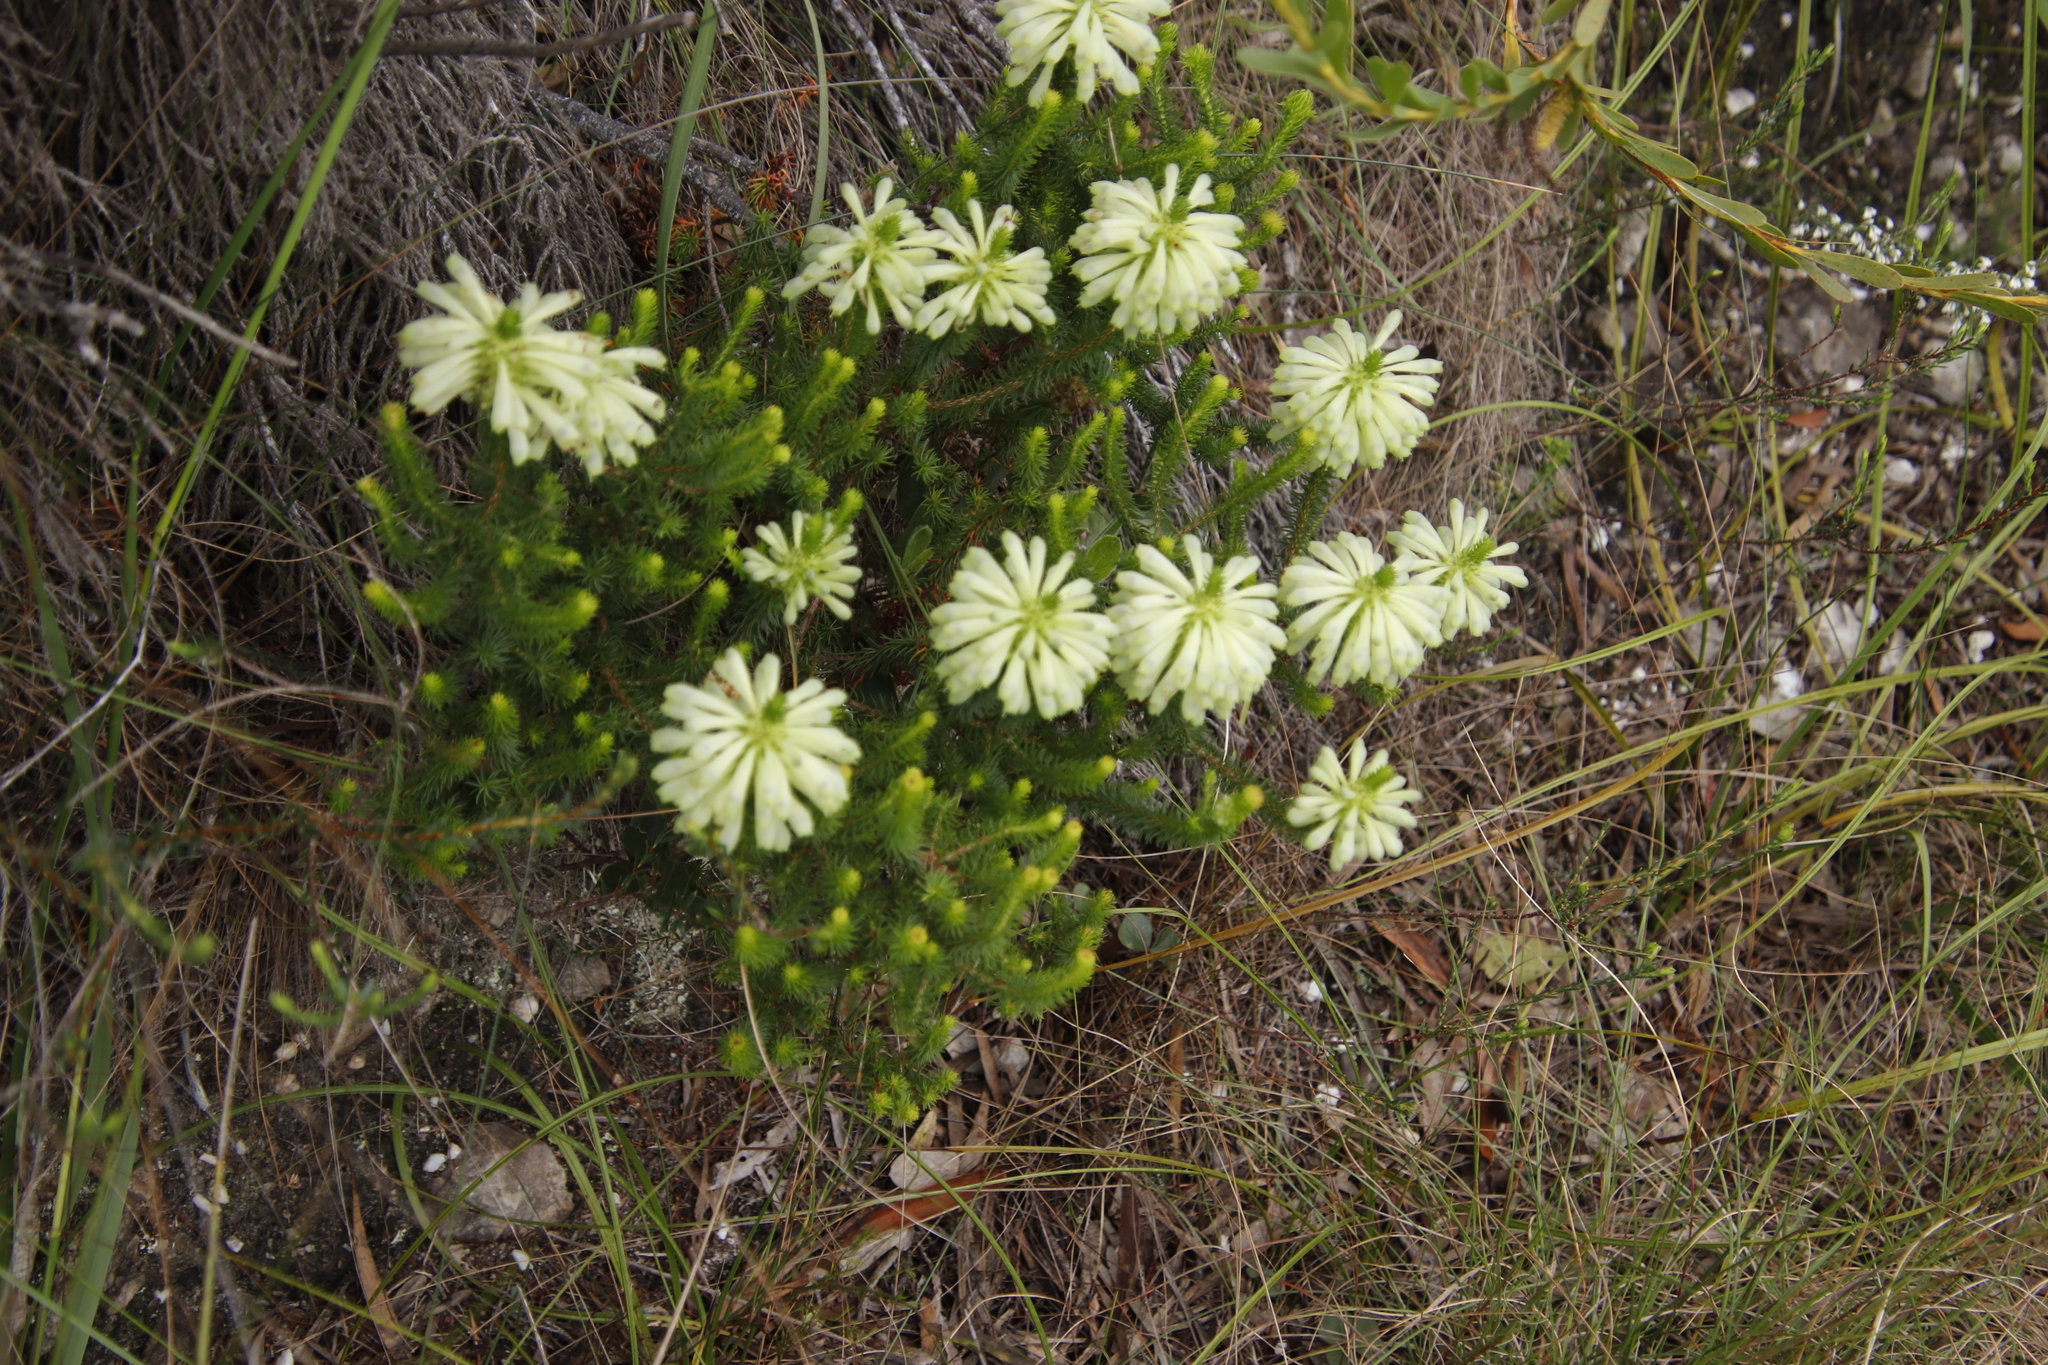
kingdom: Plantae
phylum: Tracheophyta
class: Magnoliopsida
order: Ericales
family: Ericaceae
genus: Erica
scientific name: Erica sessiliflora
